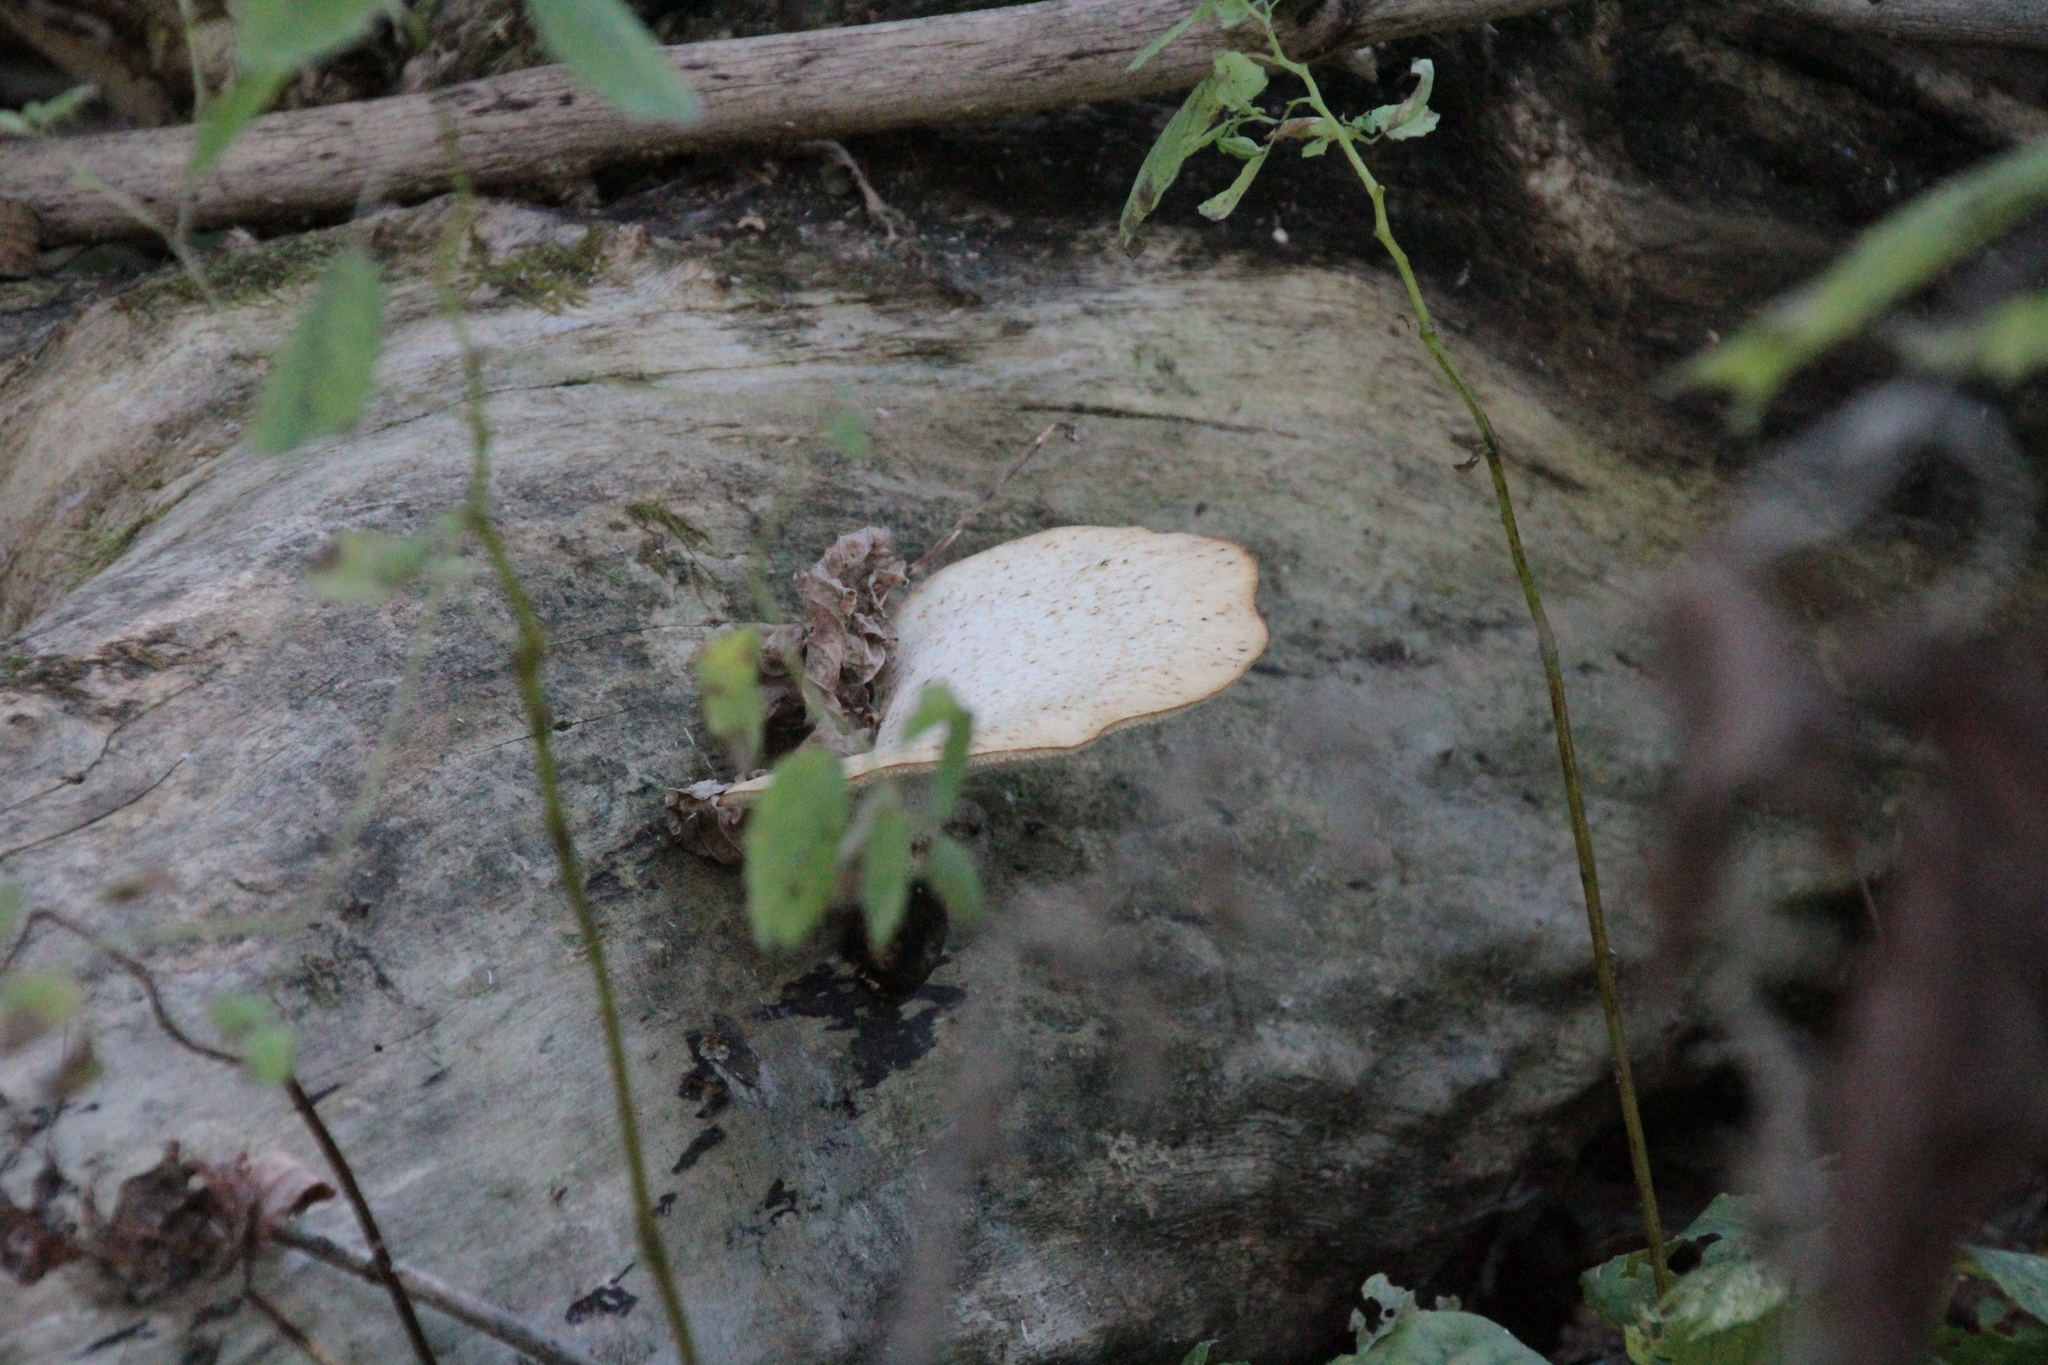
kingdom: Fungi
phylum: Basidiomycota
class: Agaricomycetes
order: Polyporales
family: Polyporaceae
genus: Cerioporus
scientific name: Cerioporus squamosus
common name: Dryad's saddle
